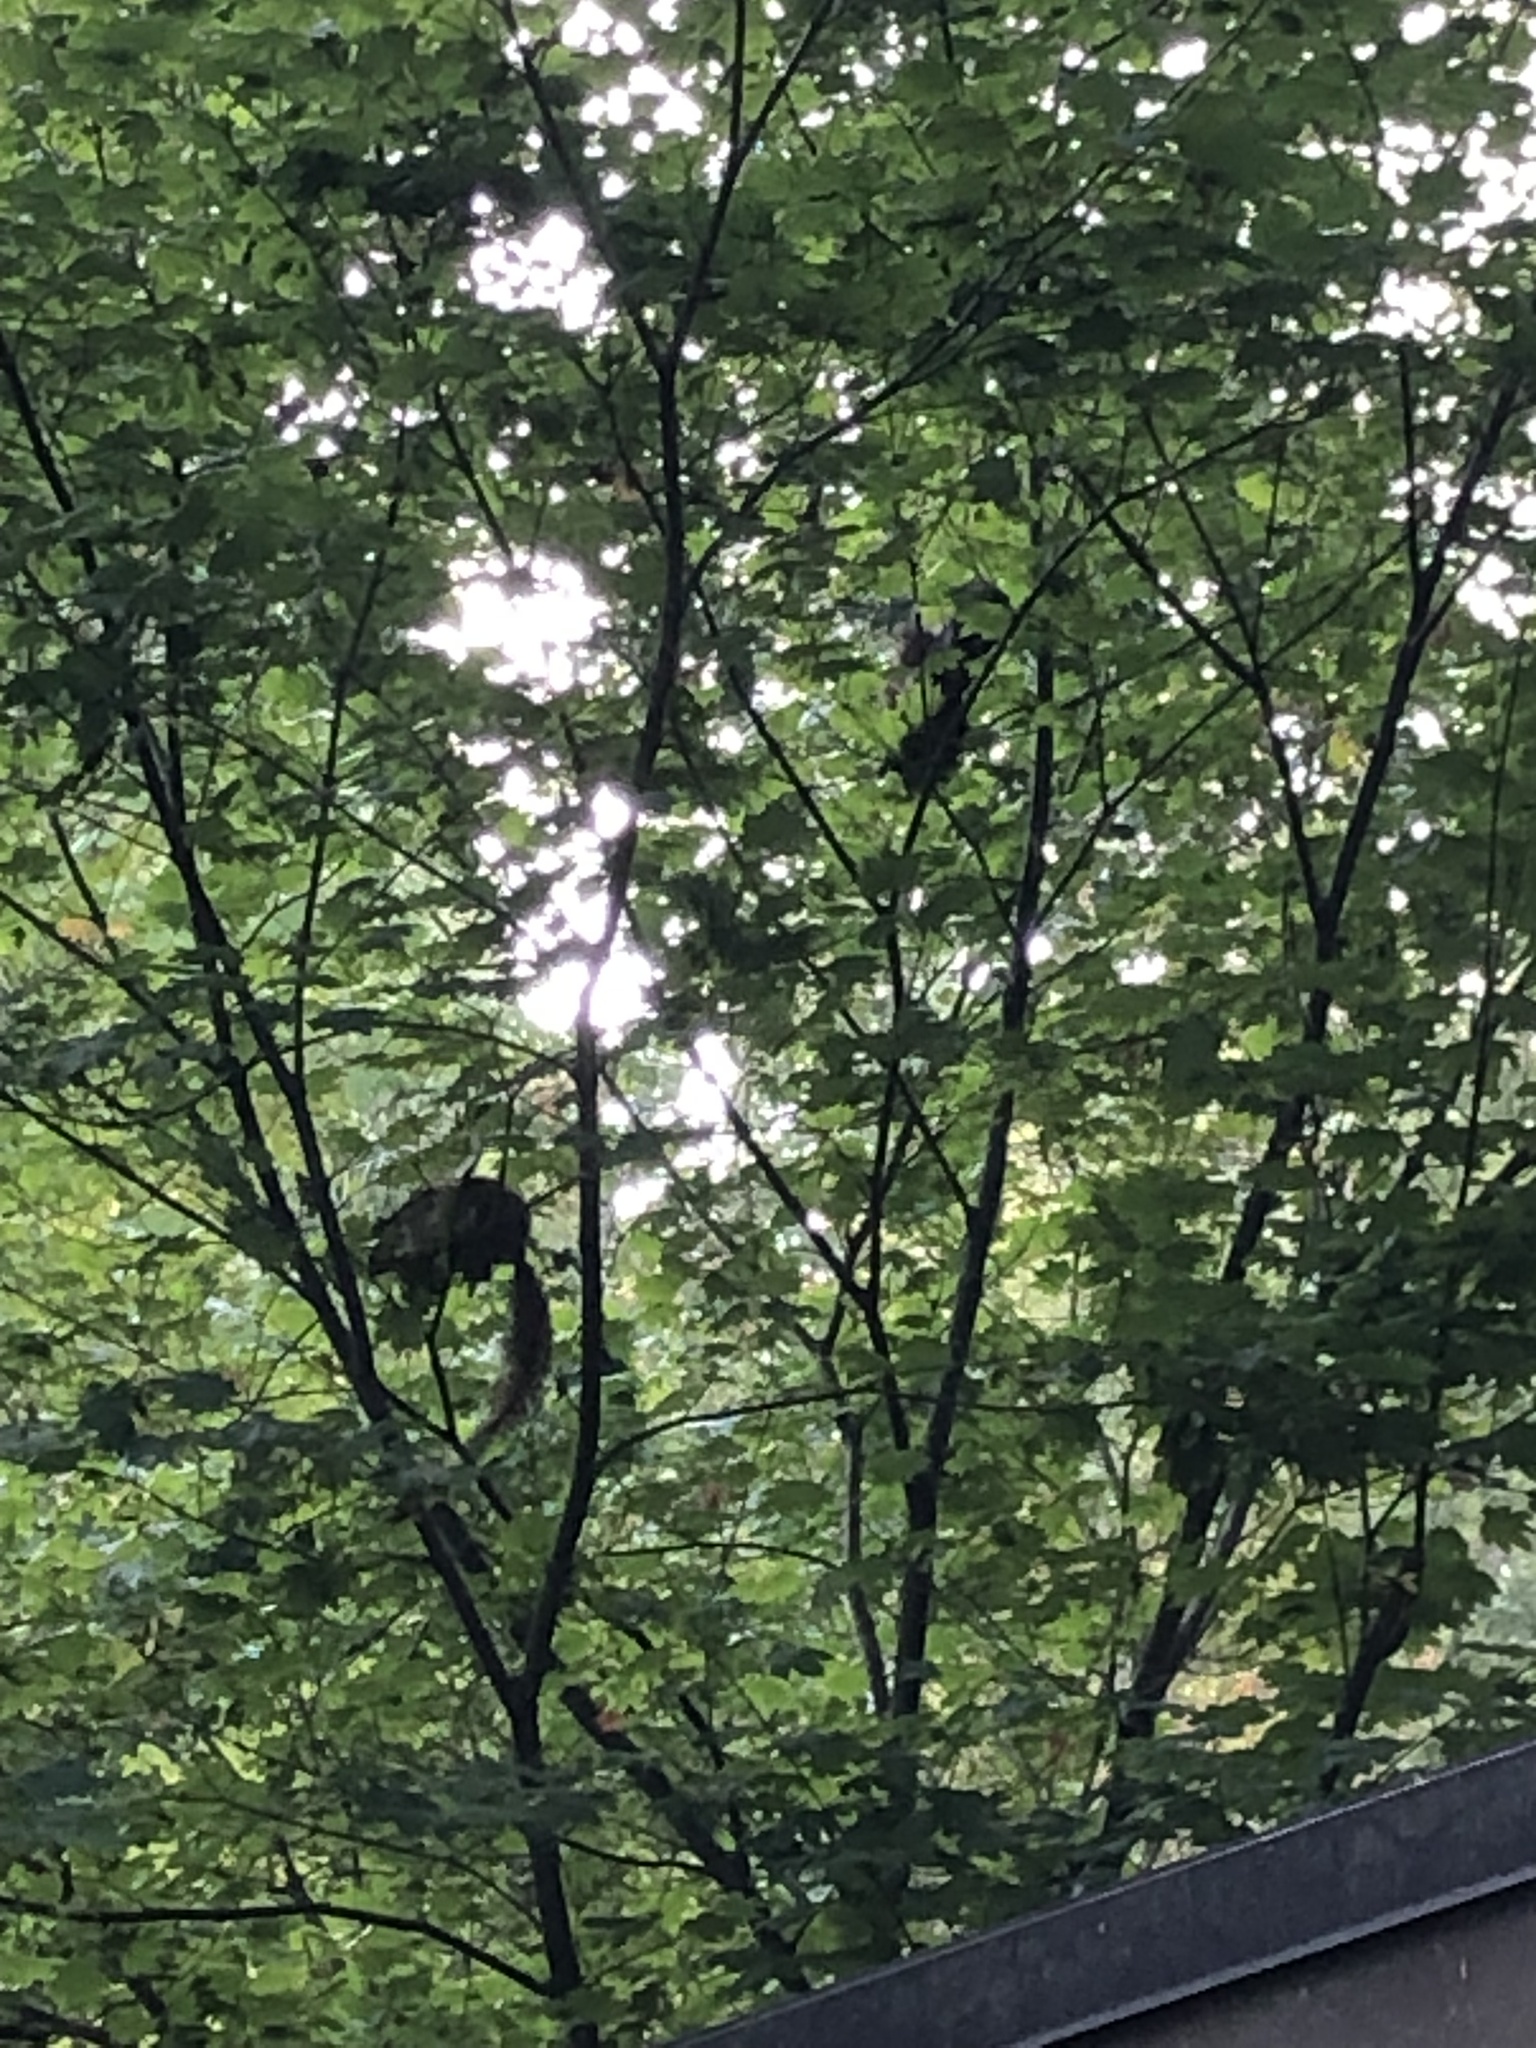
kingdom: Animalia
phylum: Chordata
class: Mammalia
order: Rodentia
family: Sciuridae
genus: Sciurus
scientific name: Sciurus carolinensis
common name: Eastern gray squirrel
